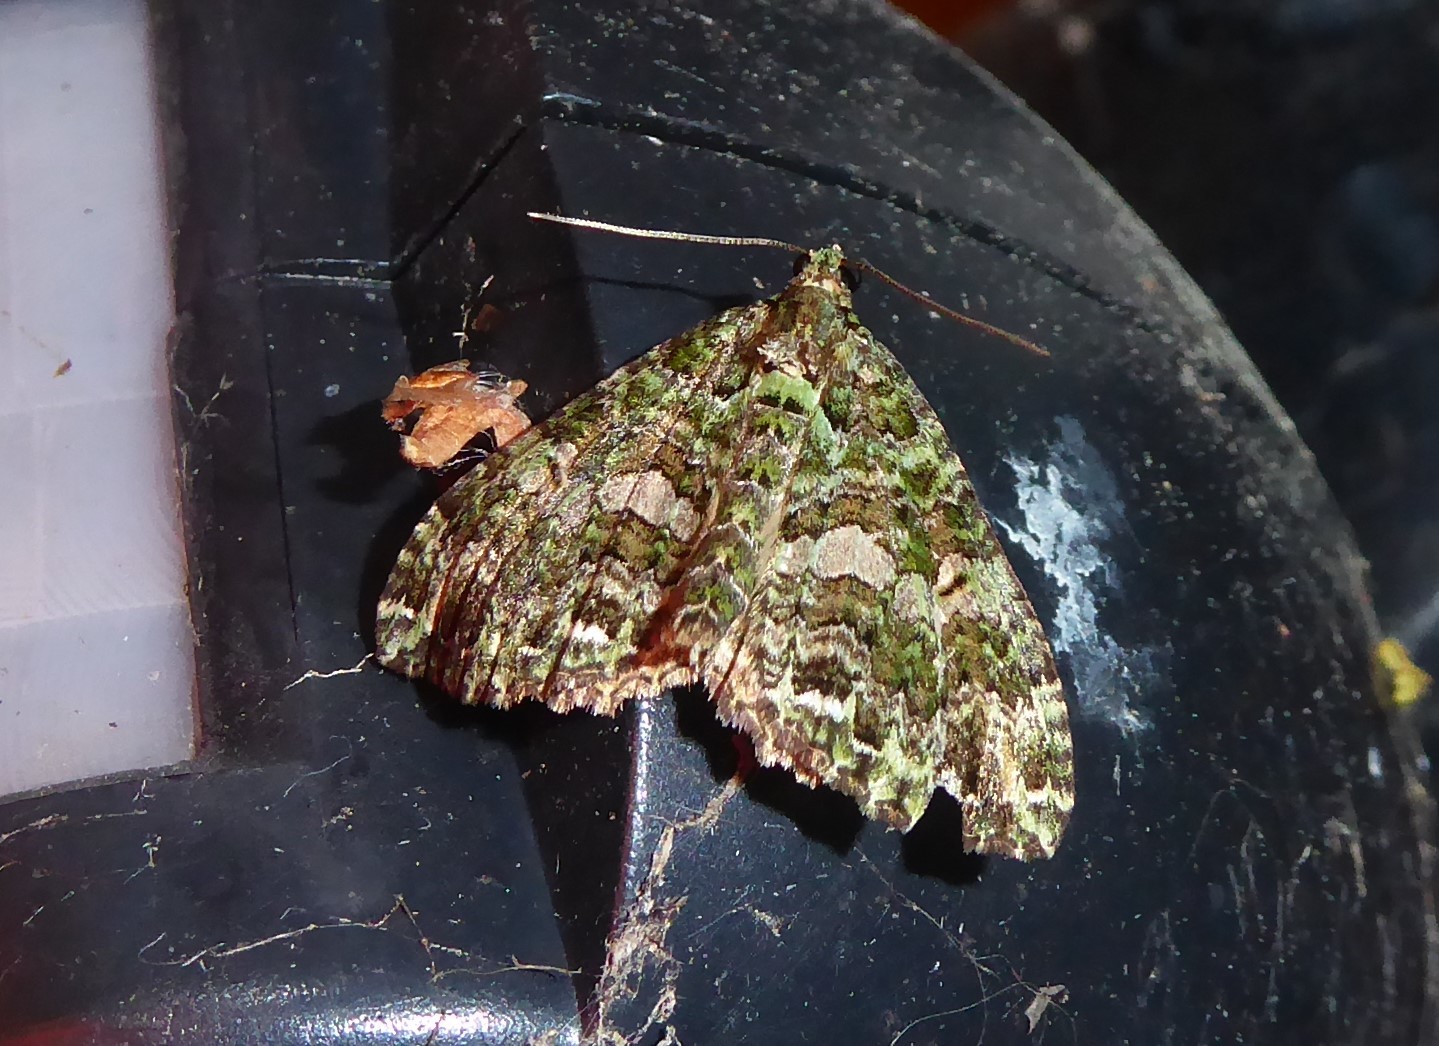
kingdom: Animalia
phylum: Arthropoda
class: Insecta
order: Lepidoptera
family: Geometridae
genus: Austrocidaria
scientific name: Austrocidaria similata
